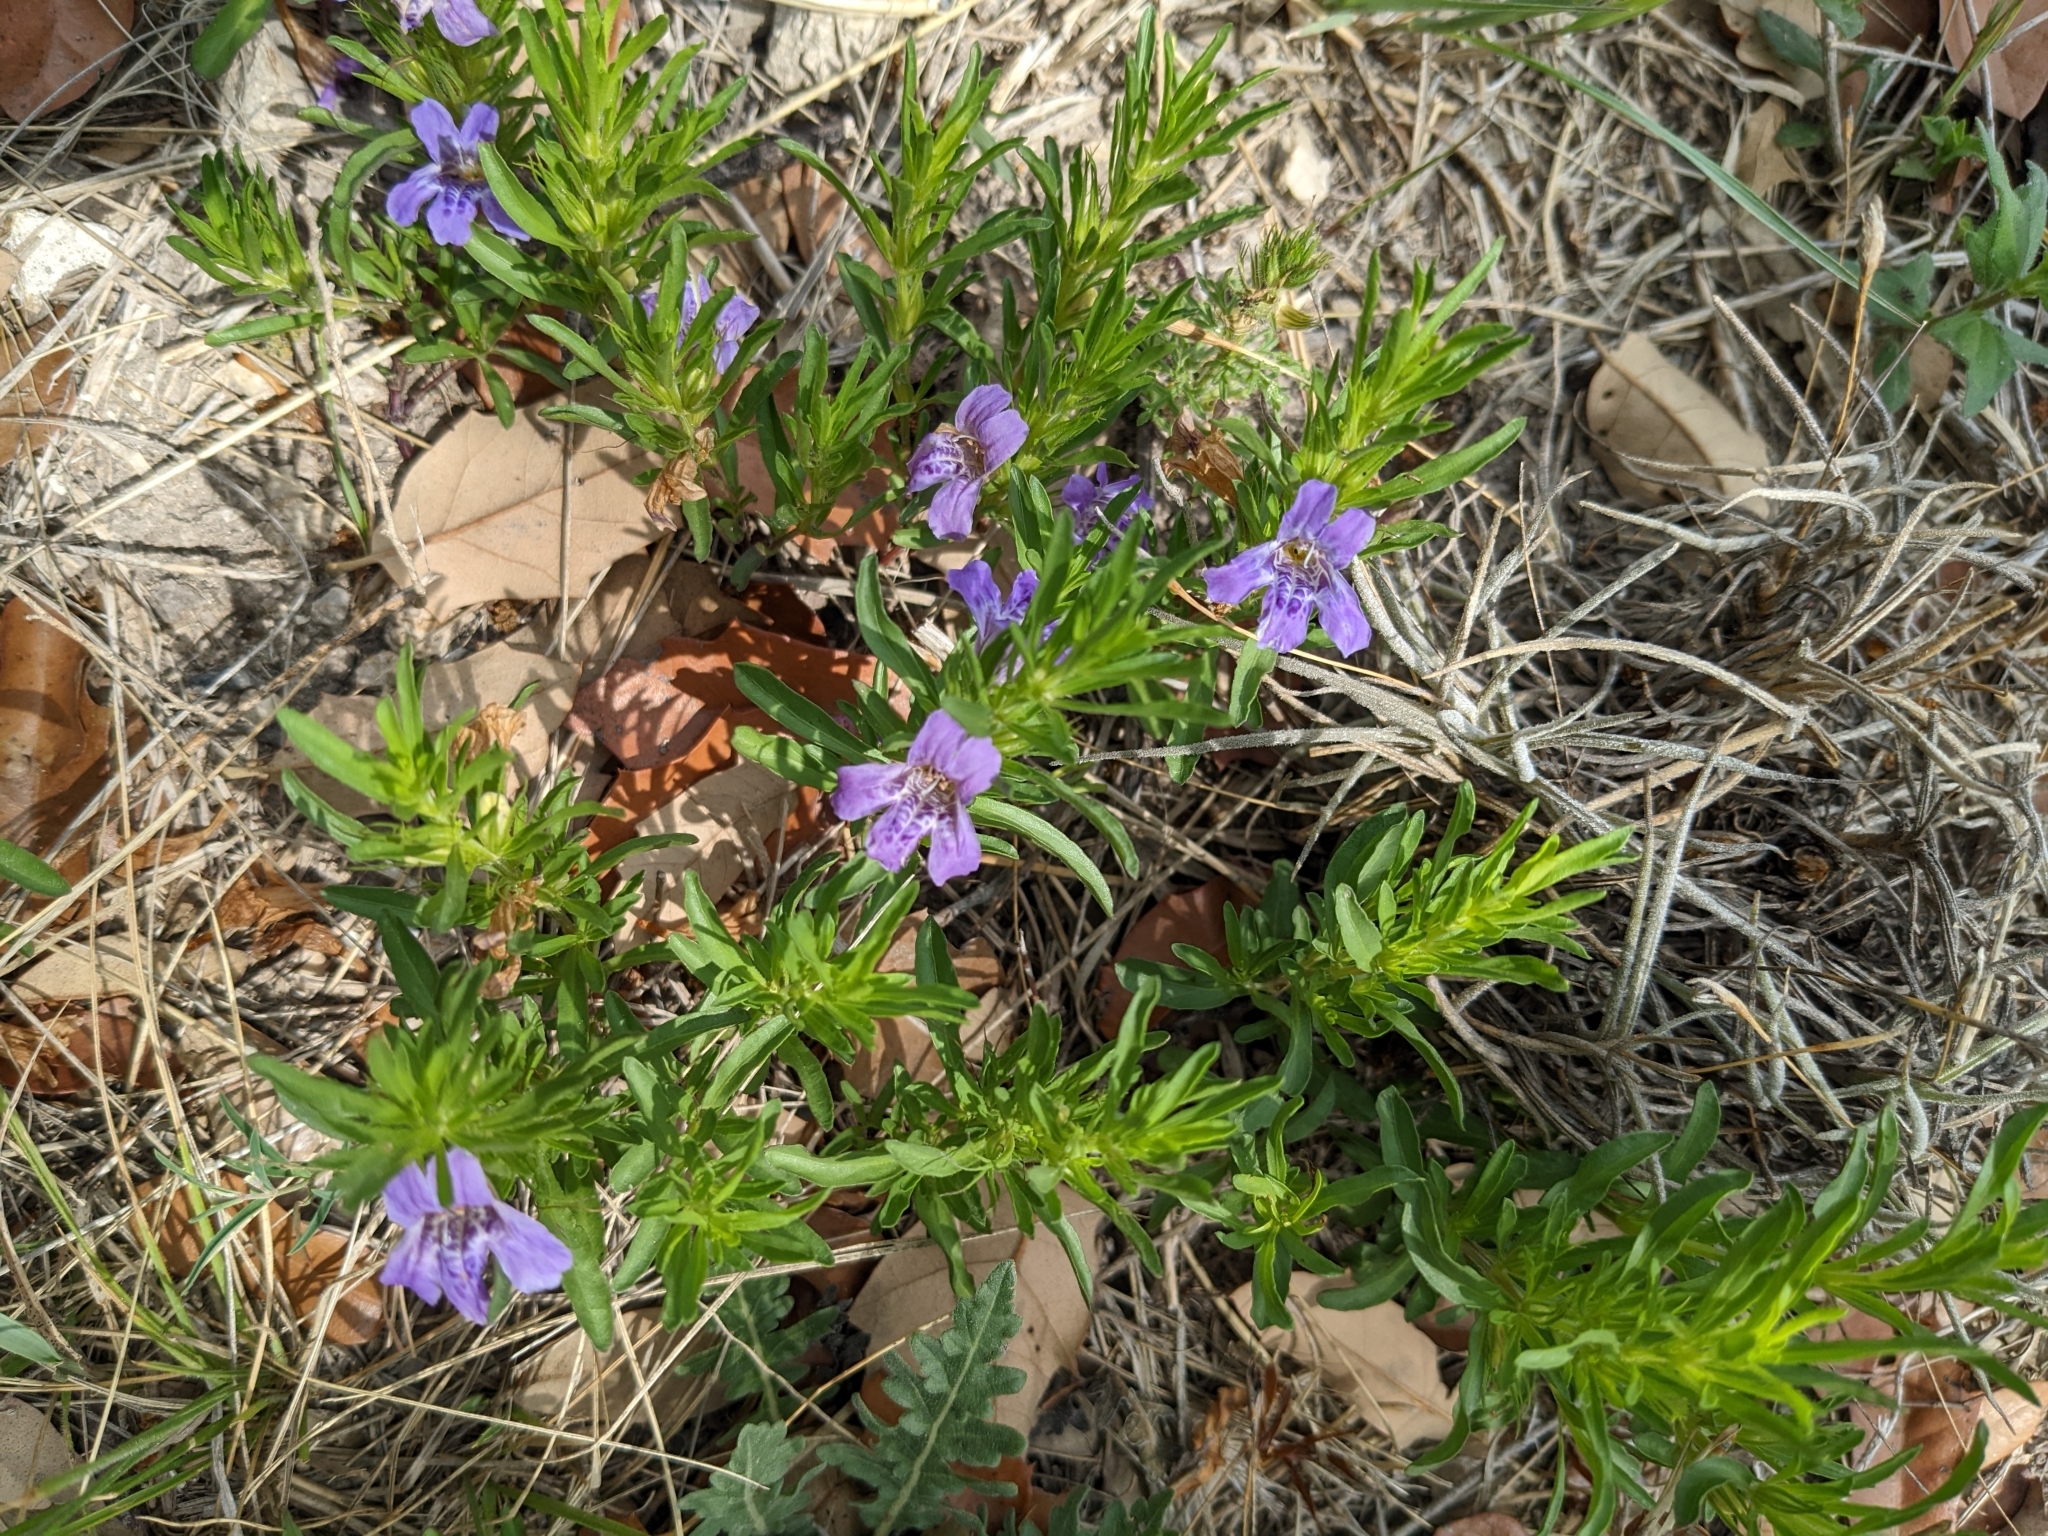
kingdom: Plantae
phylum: Tracheophyta
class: Magnoliopsida
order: Lamiales
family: Acanthaceae
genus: Dyschoriste
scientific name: Dyschoriste linearis
